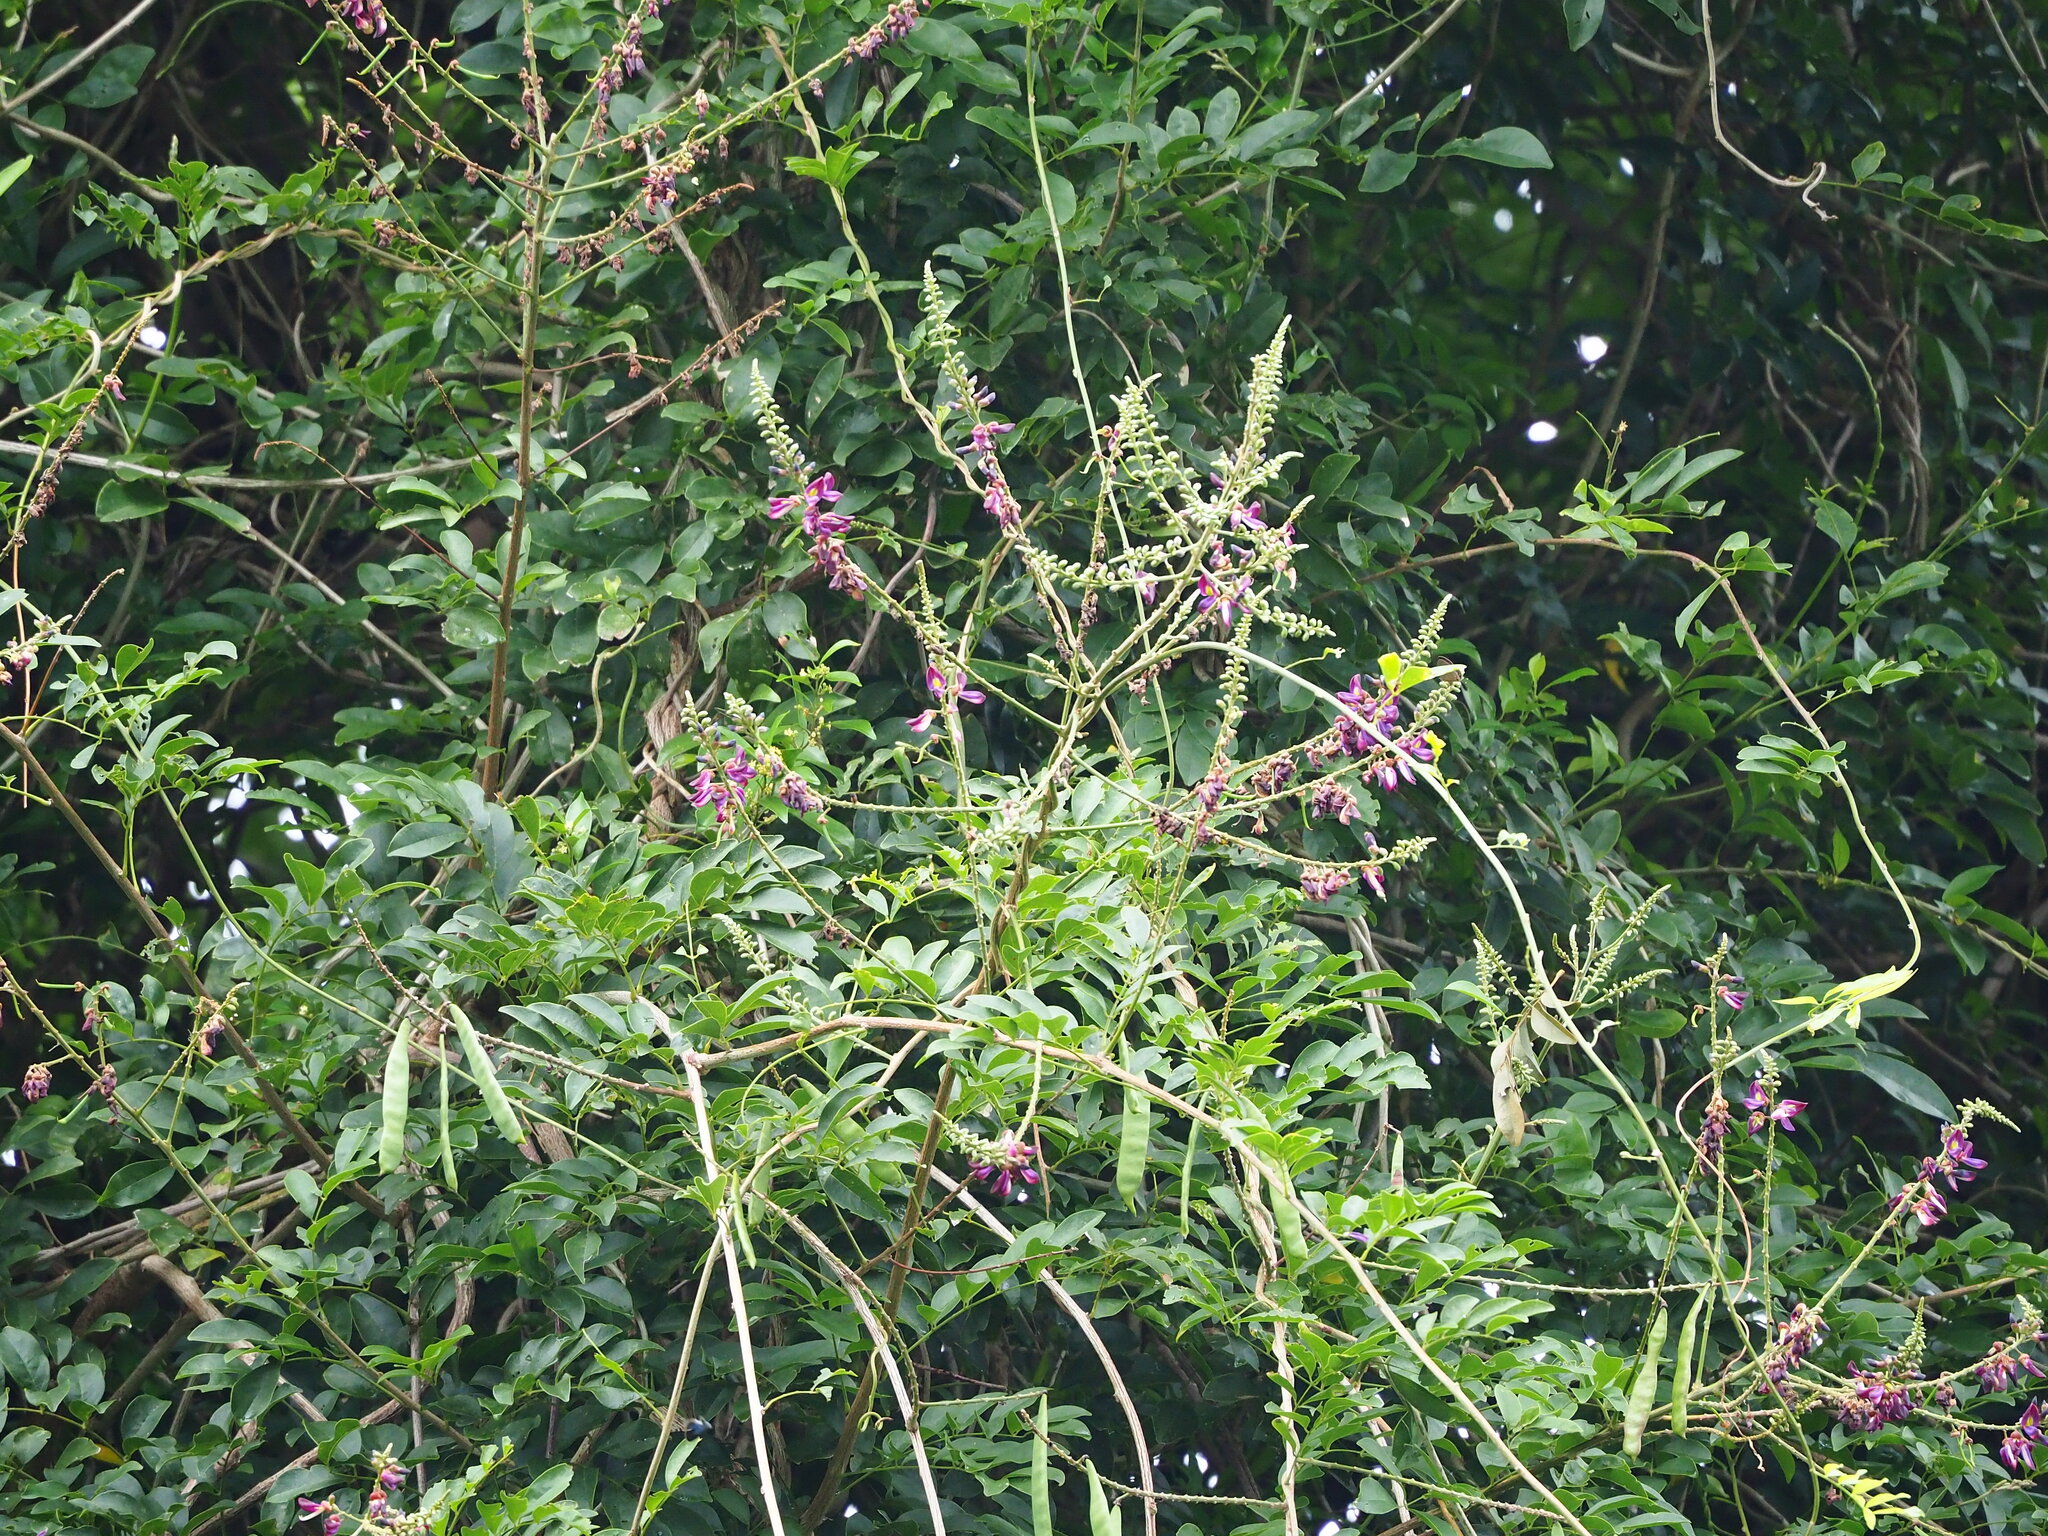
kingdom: Plantae
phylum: Tracheophyta
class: Magnoliopsida
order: Fabales
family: Fabaceae
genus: Wisteriopsis
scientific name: Wisteriopsis reticulata
